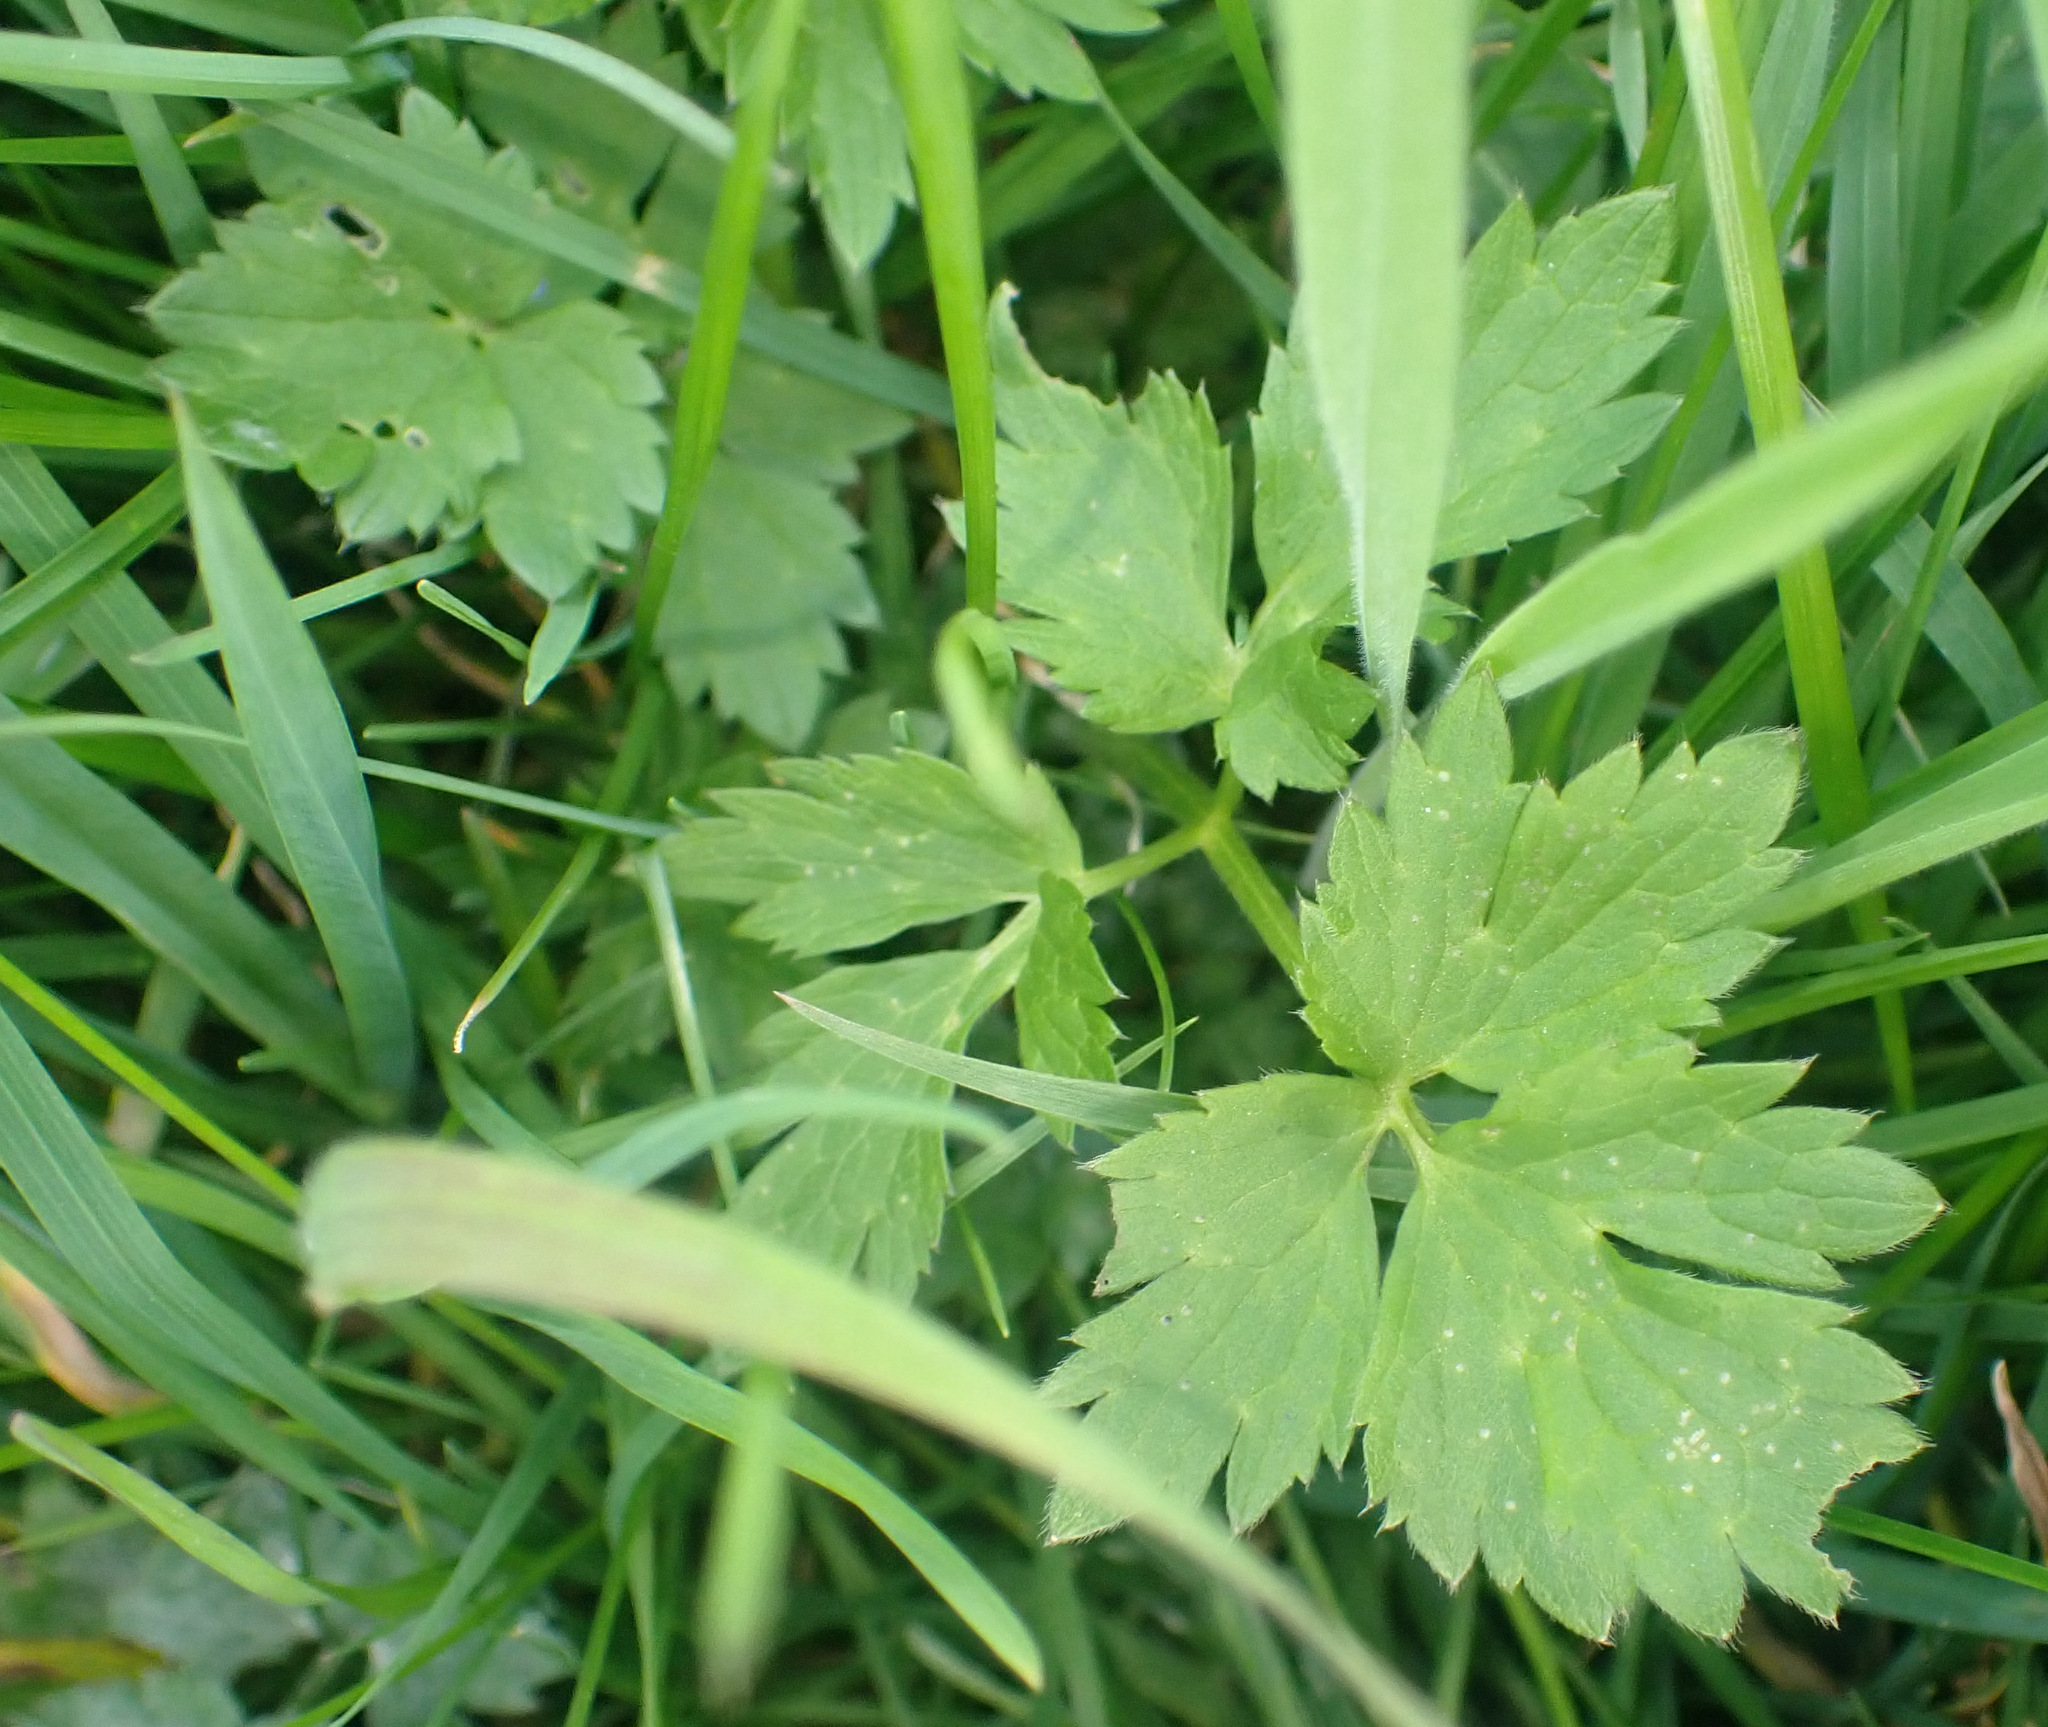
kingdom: Plantae
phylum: Tracheophyta
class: Magnoliopsida
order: Ranunculales
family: Ranunculaceae
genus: Ranunculus
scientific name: Ranunculus repens
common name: Creeping buttercup
